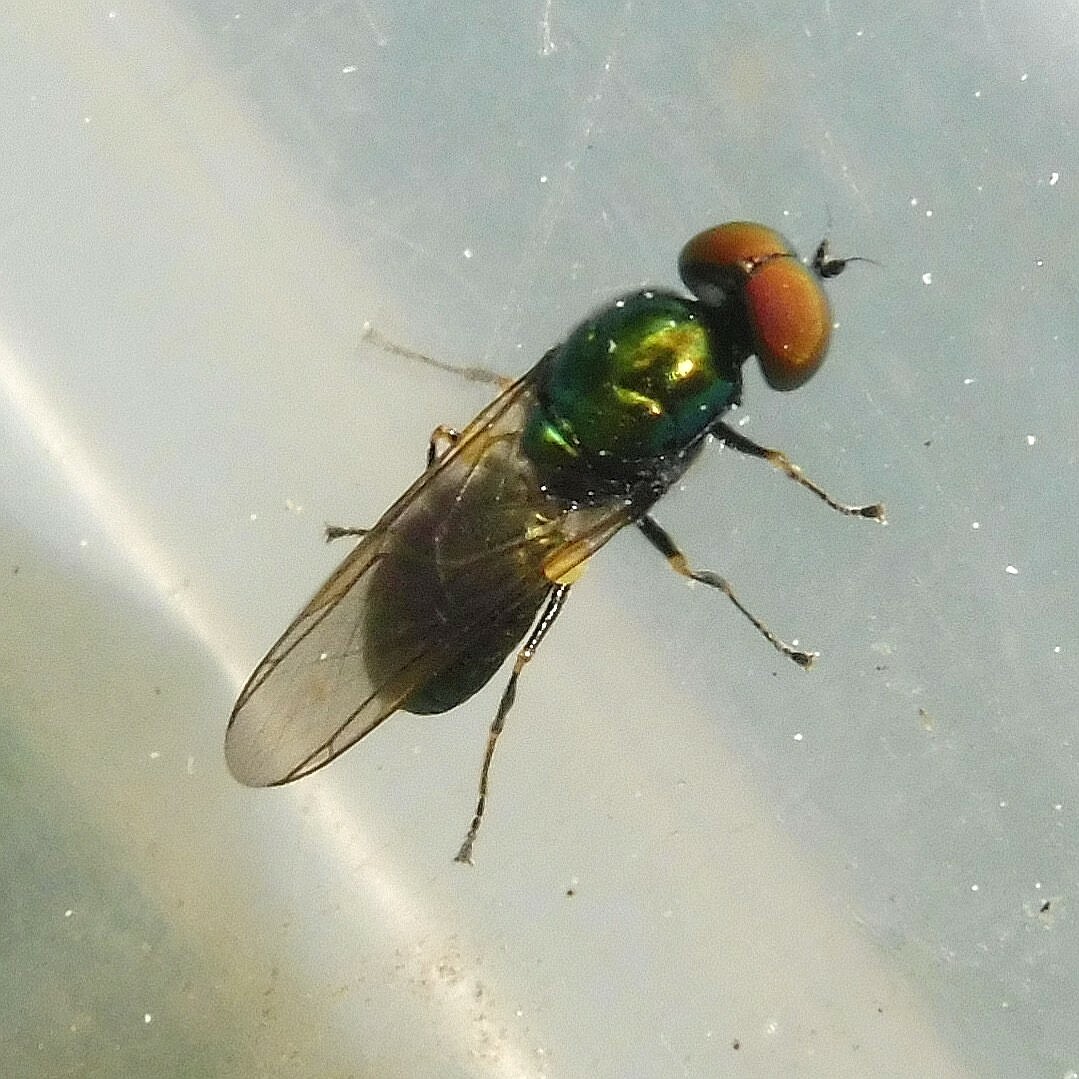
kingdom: Animalia
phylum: Arthropoda
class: Insecta
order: Diptera
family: Stratiomyidae
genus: Microchrysa
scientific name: Microchrysa polita
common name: Black-horned gem
